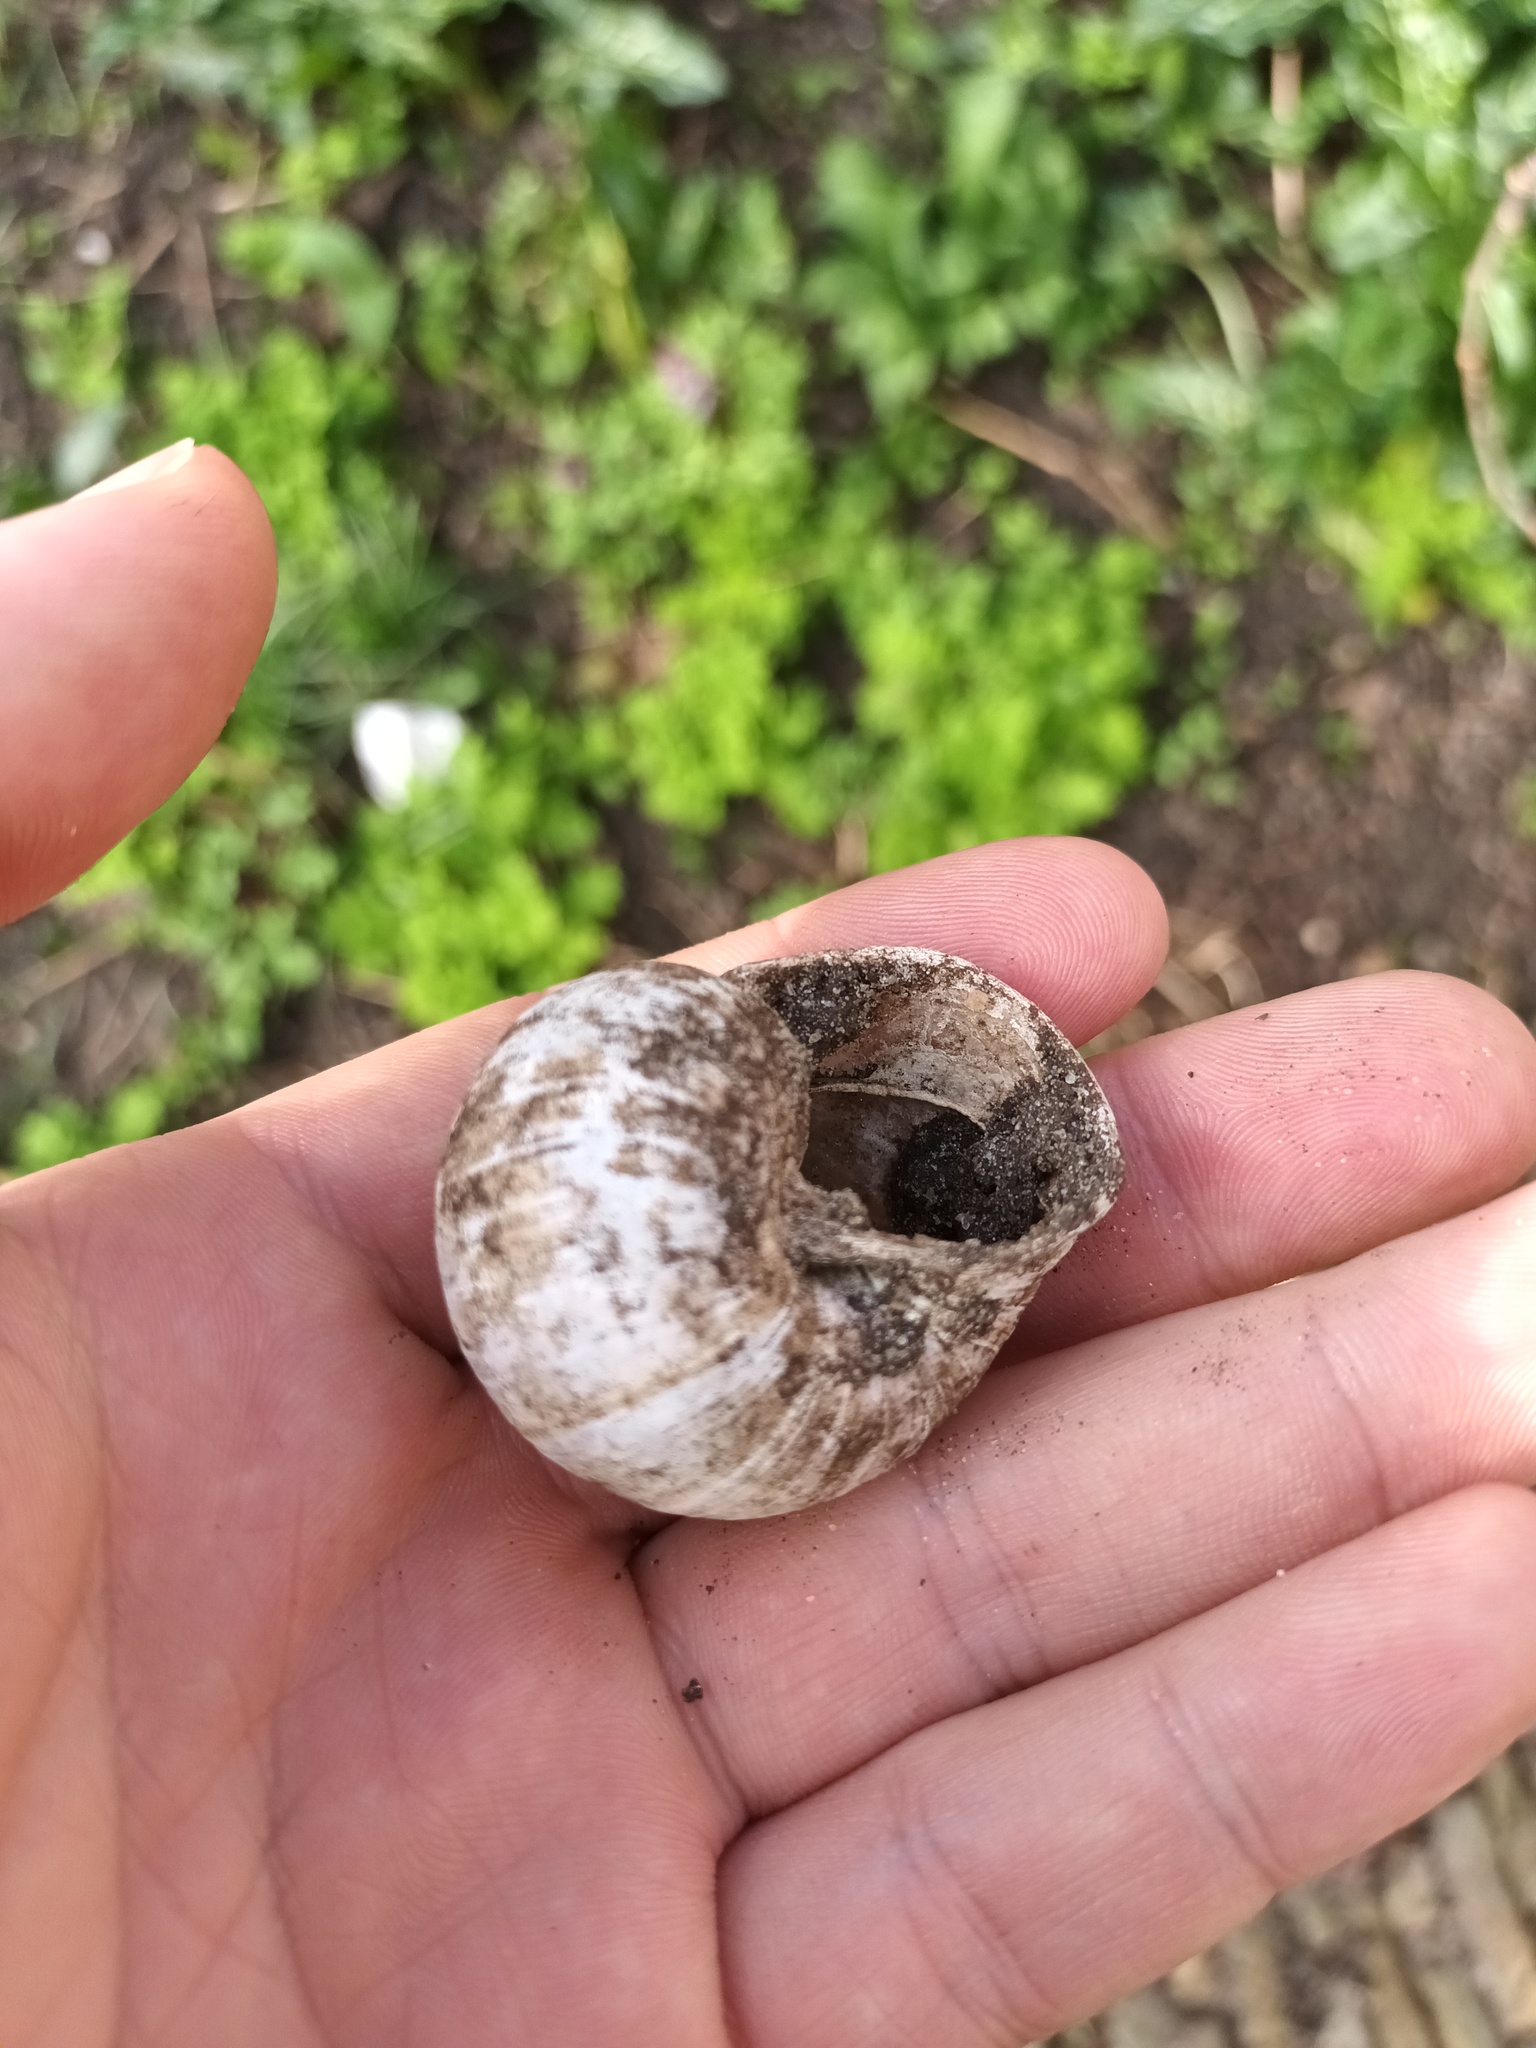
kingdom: Animalia
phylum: Mollusca
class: Gastropoda
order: Stylommatophora
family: Helicidae
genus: Helix
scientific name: Helix pomatia
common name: Roman snail
